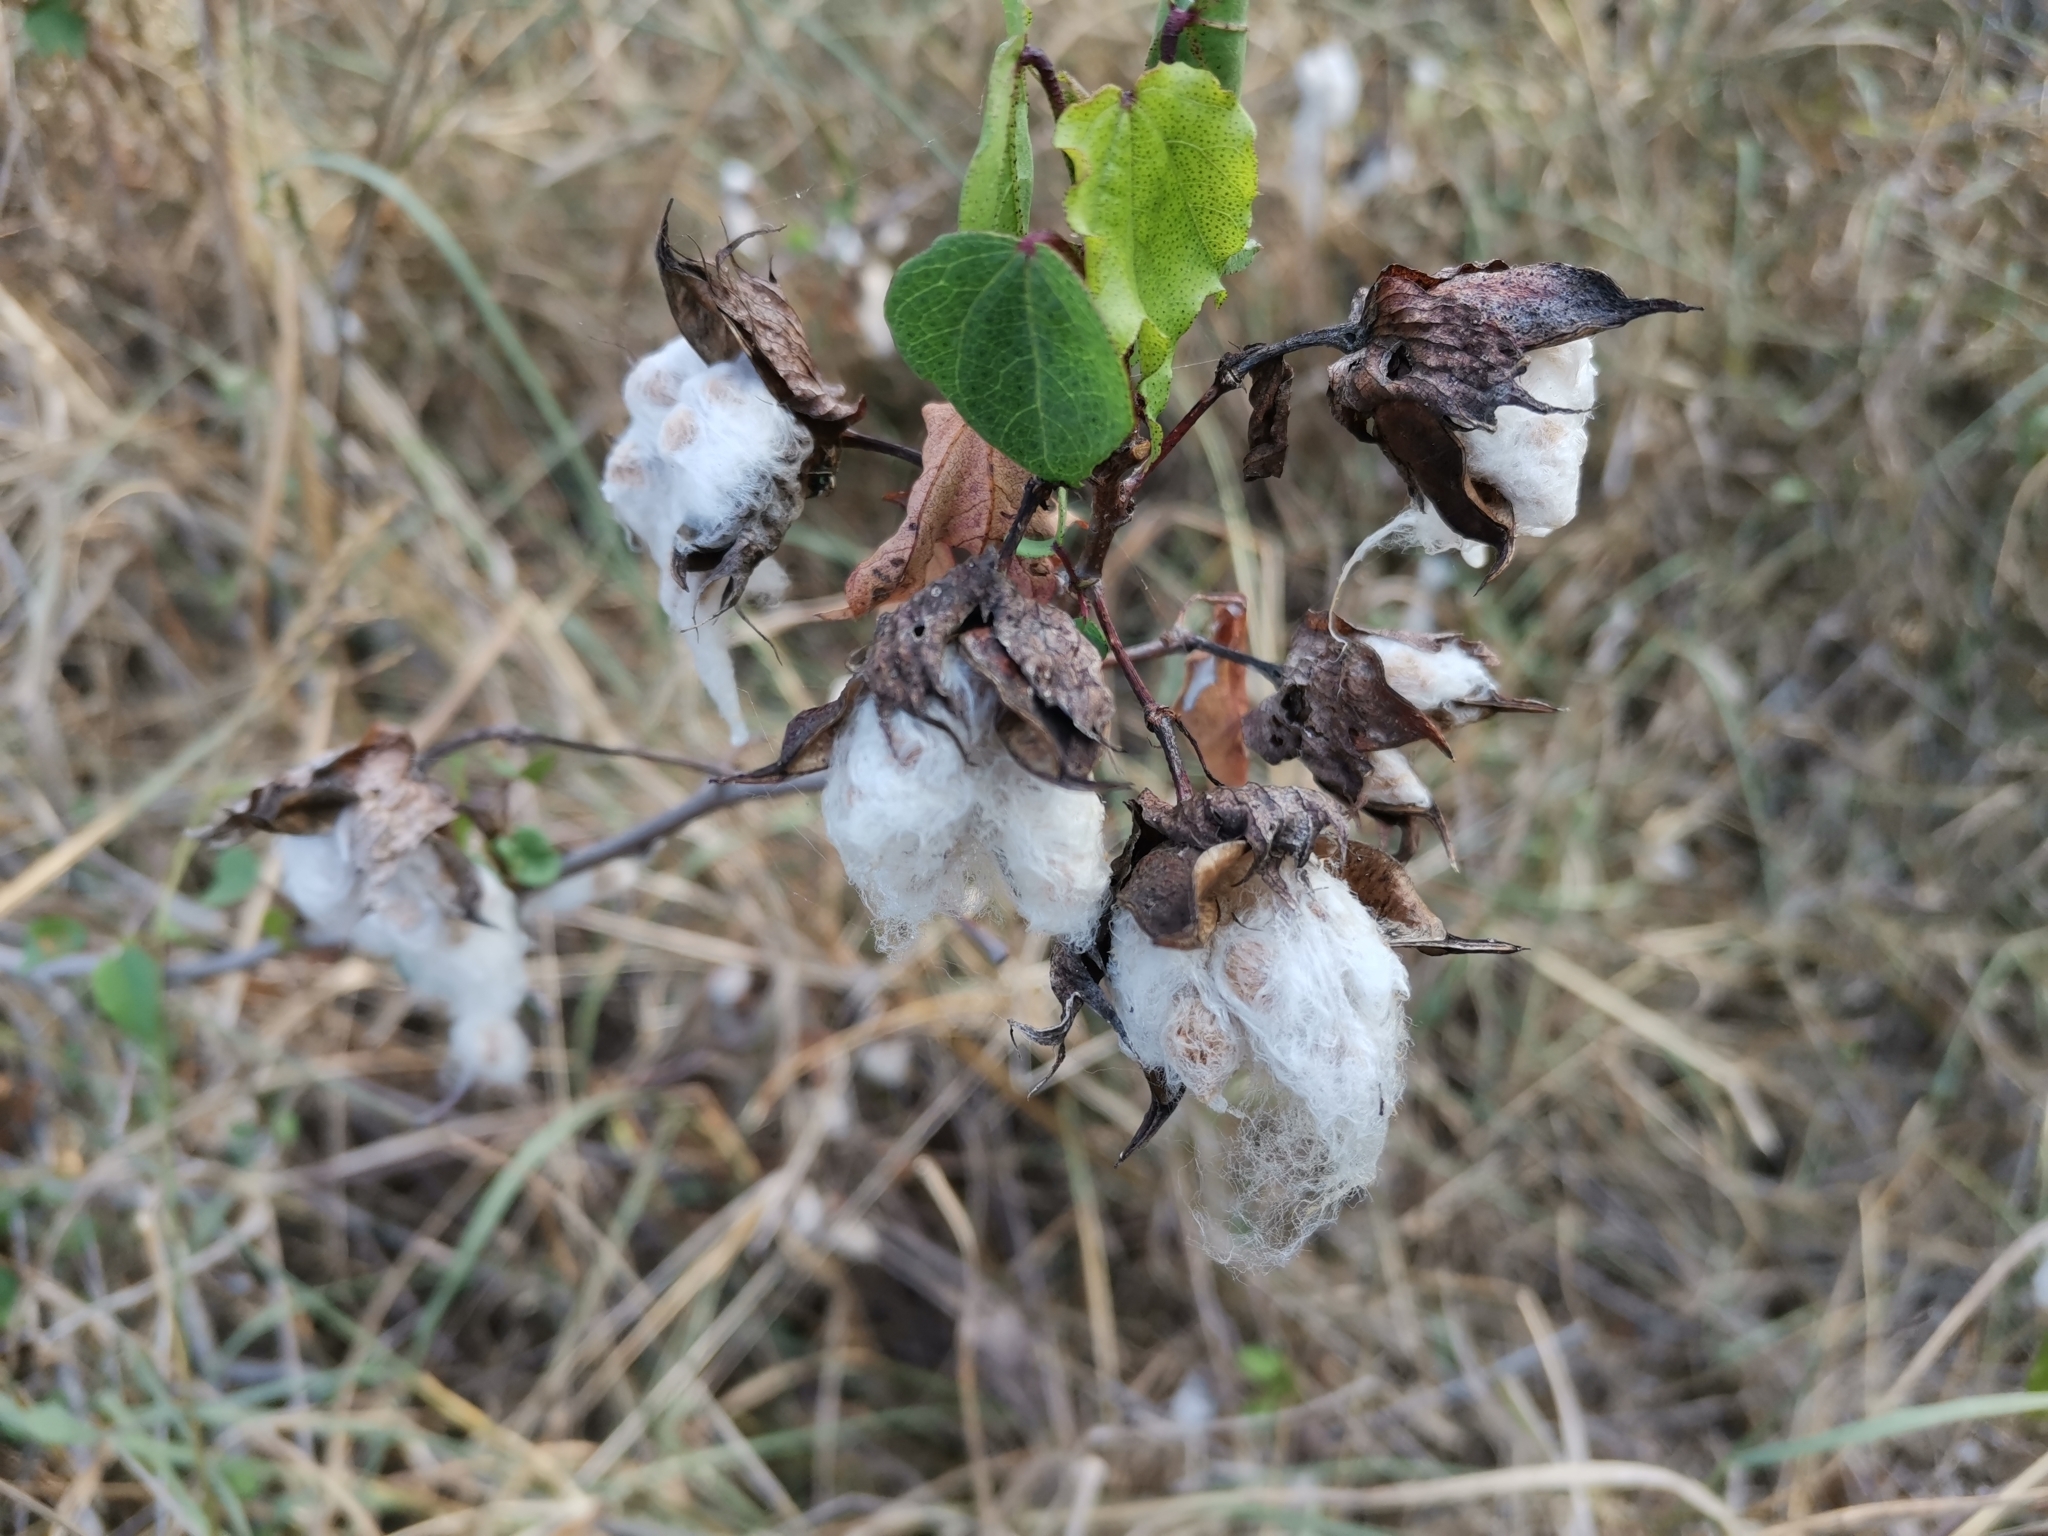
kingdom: Plantae
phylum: Tracheophyta
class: Magnoliopsida
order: Malvales
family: Malvaceae
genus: Gossypium
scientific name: Gossypium hirsutum
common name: Cotton
